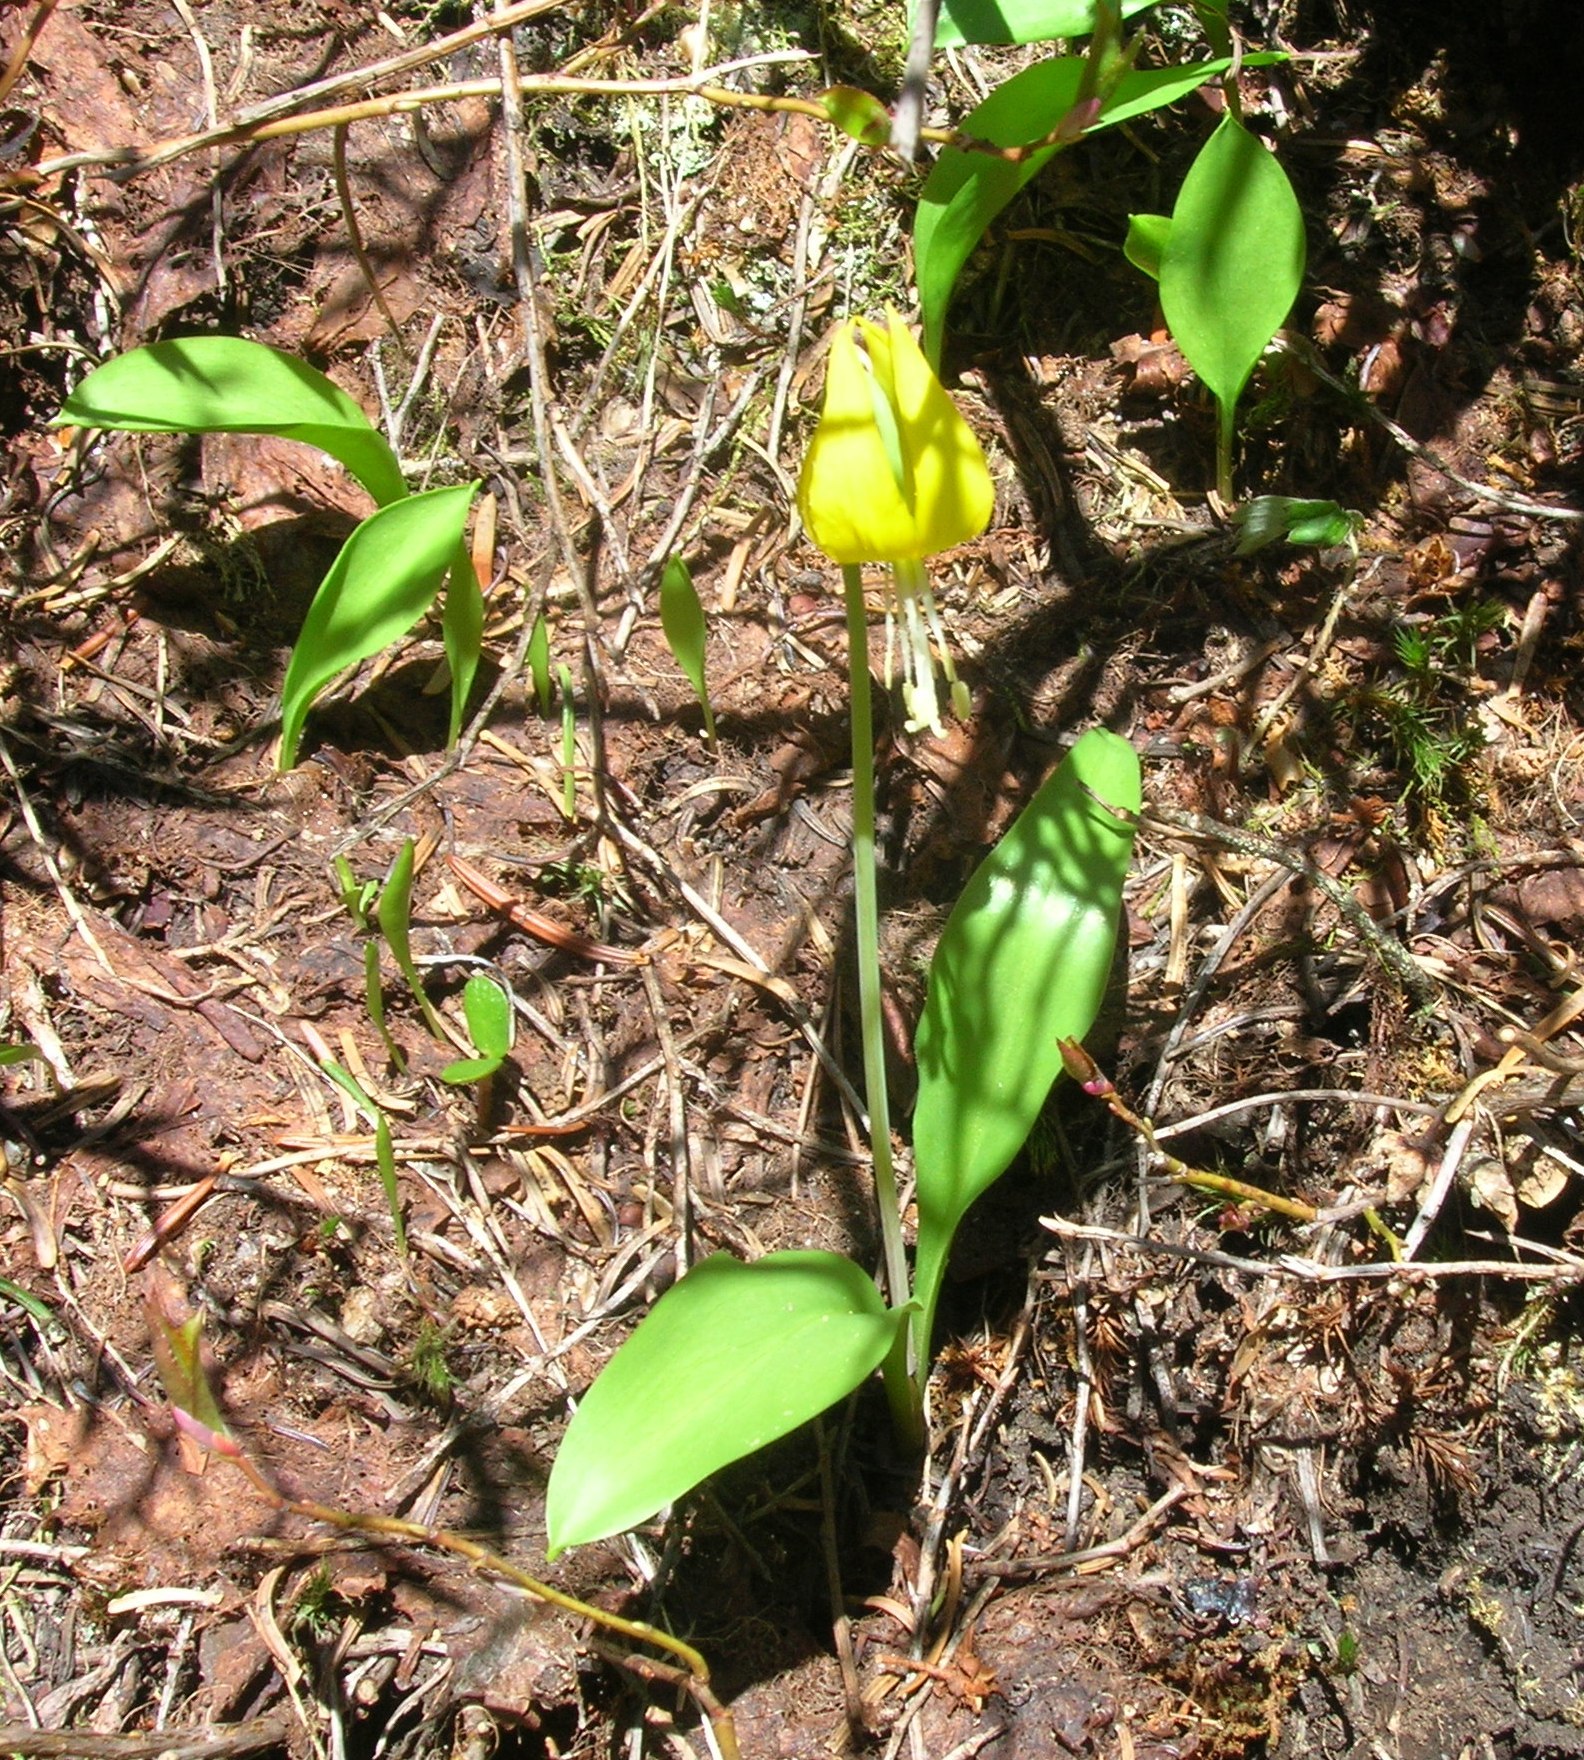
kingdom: Plantae
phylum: Tracheophyta
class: Liliopsida
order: Liliales
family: Liliaceae
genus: Erythronium
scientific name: Erythronium grandiflorum
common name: Avalanche-lily
